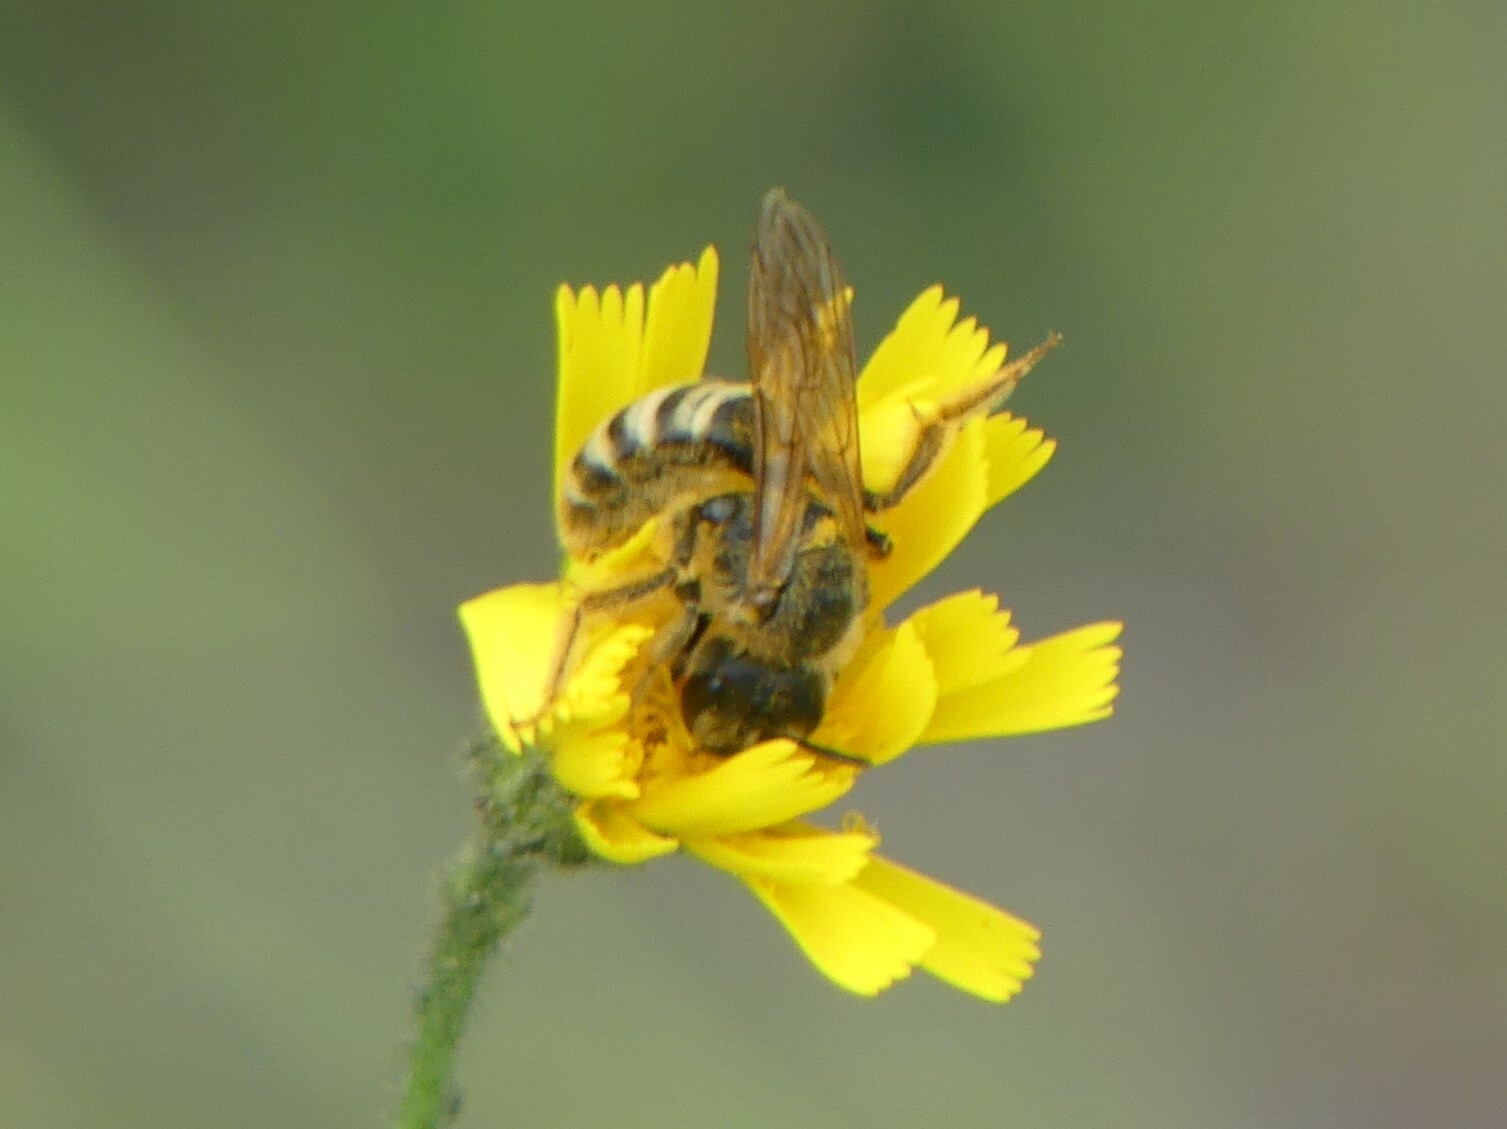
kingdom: Animalia
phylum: Arthropoda
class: Insecta
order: Hymenoptera
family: Halictidae
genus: Halictus
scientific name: Halictus scabiosae
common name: Great banded furrow bee
